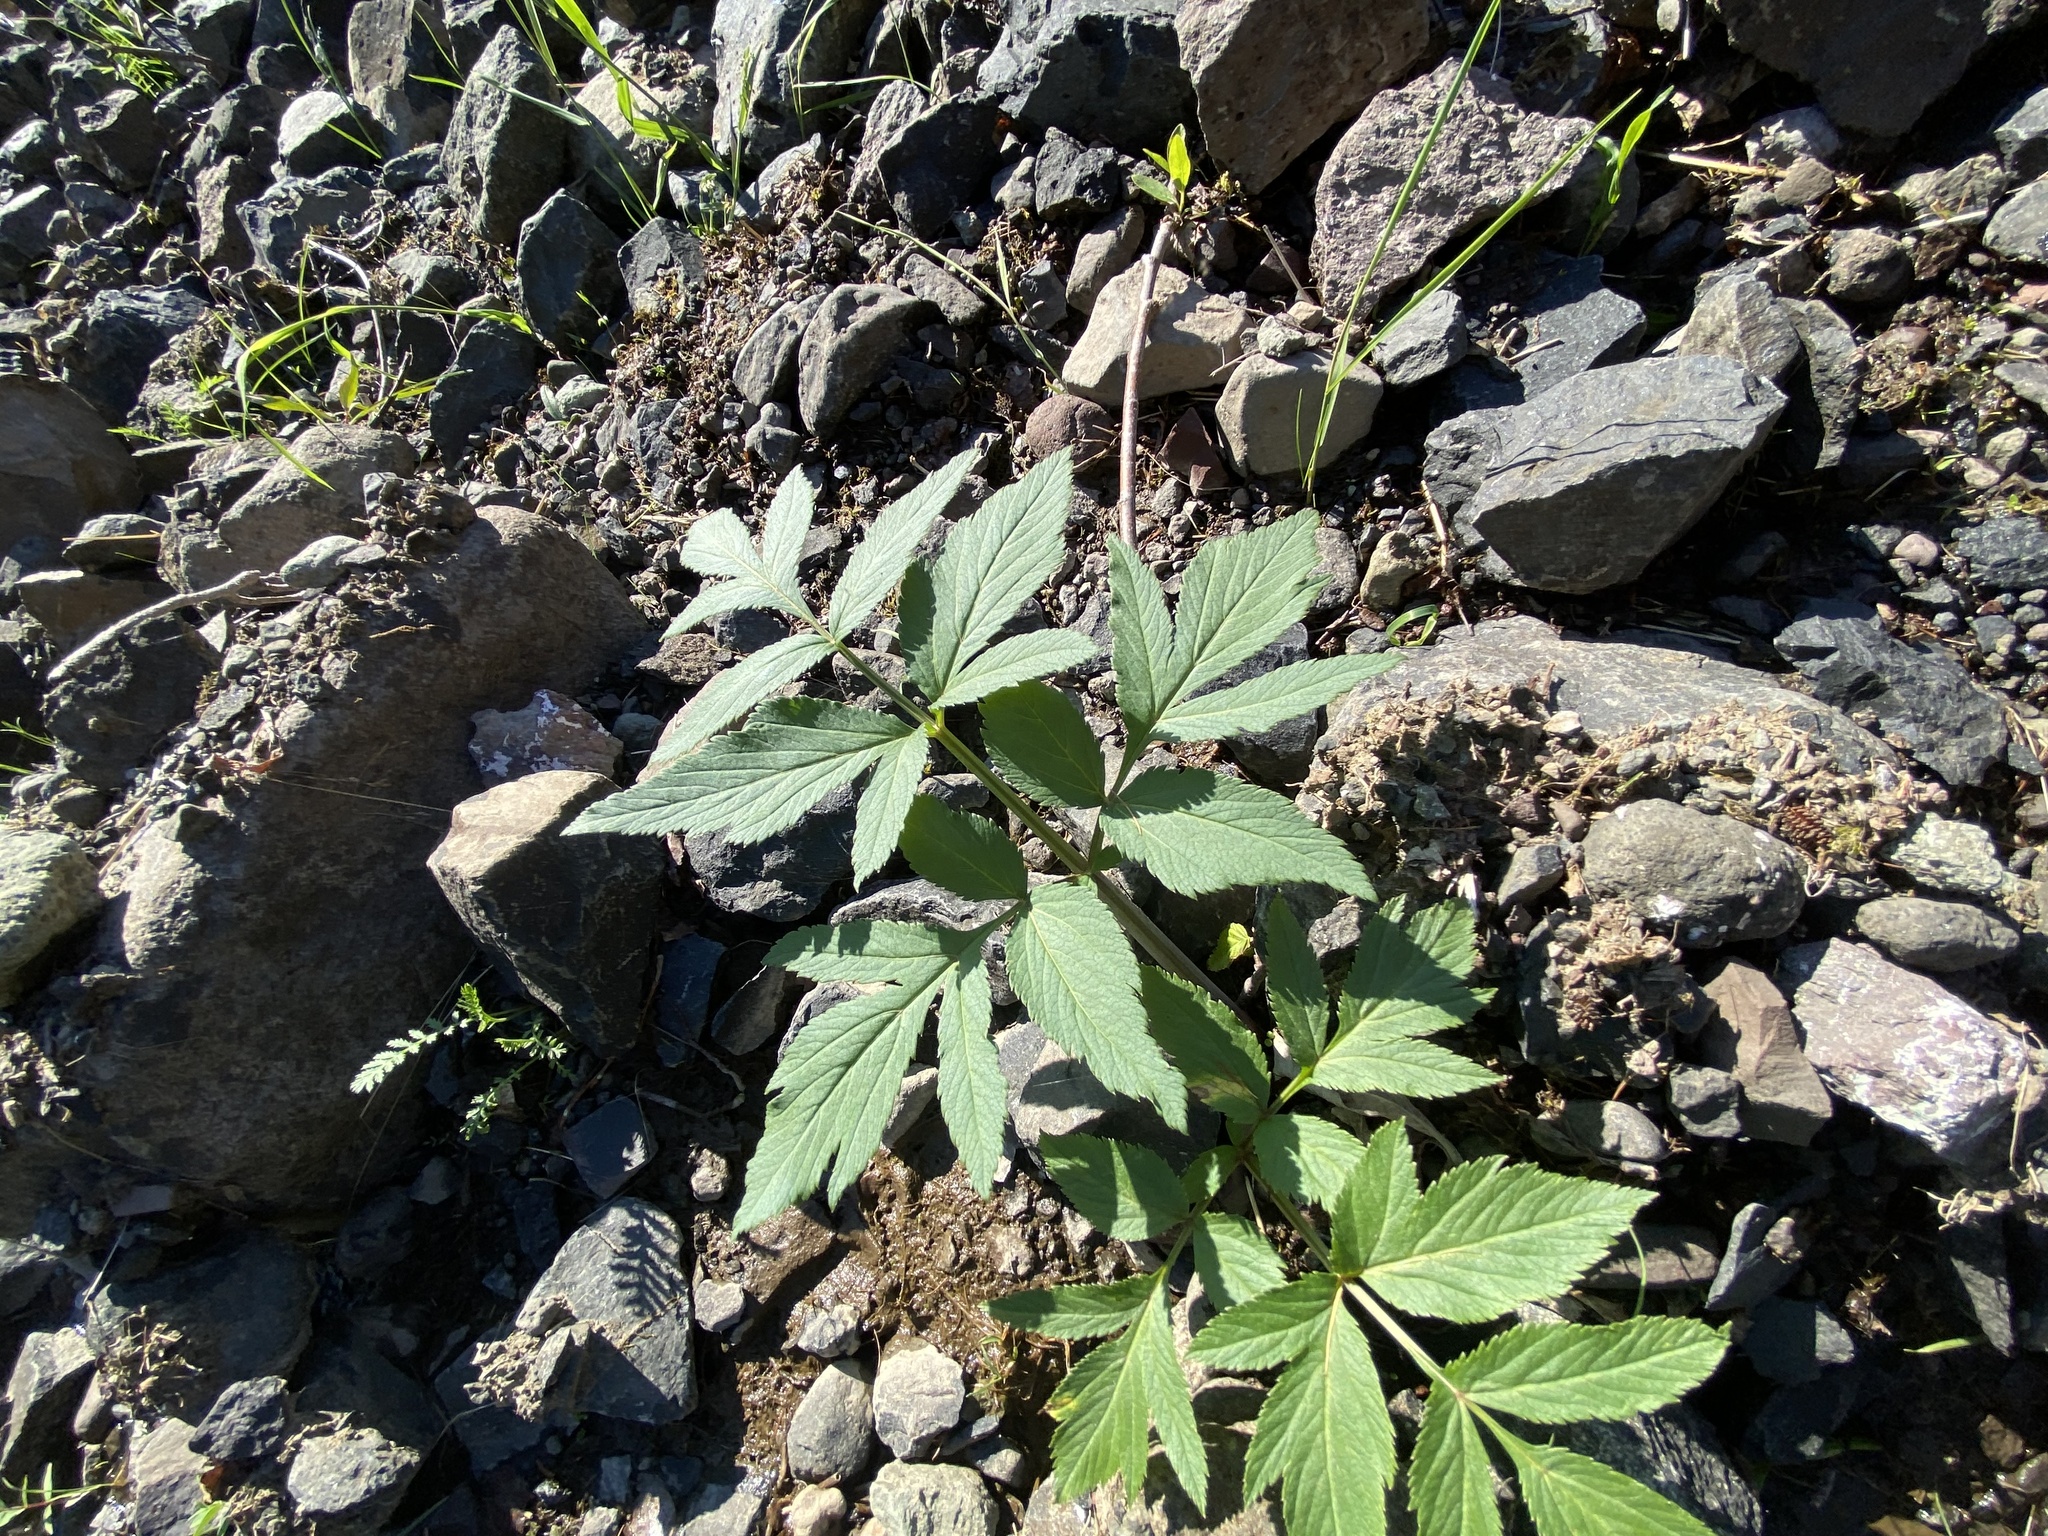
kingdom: Plantae
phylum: Tracheophyta
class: Magnoliopsida
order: Apiales
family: Apiaceae
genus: Angelica
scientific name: Angelica decurrens
